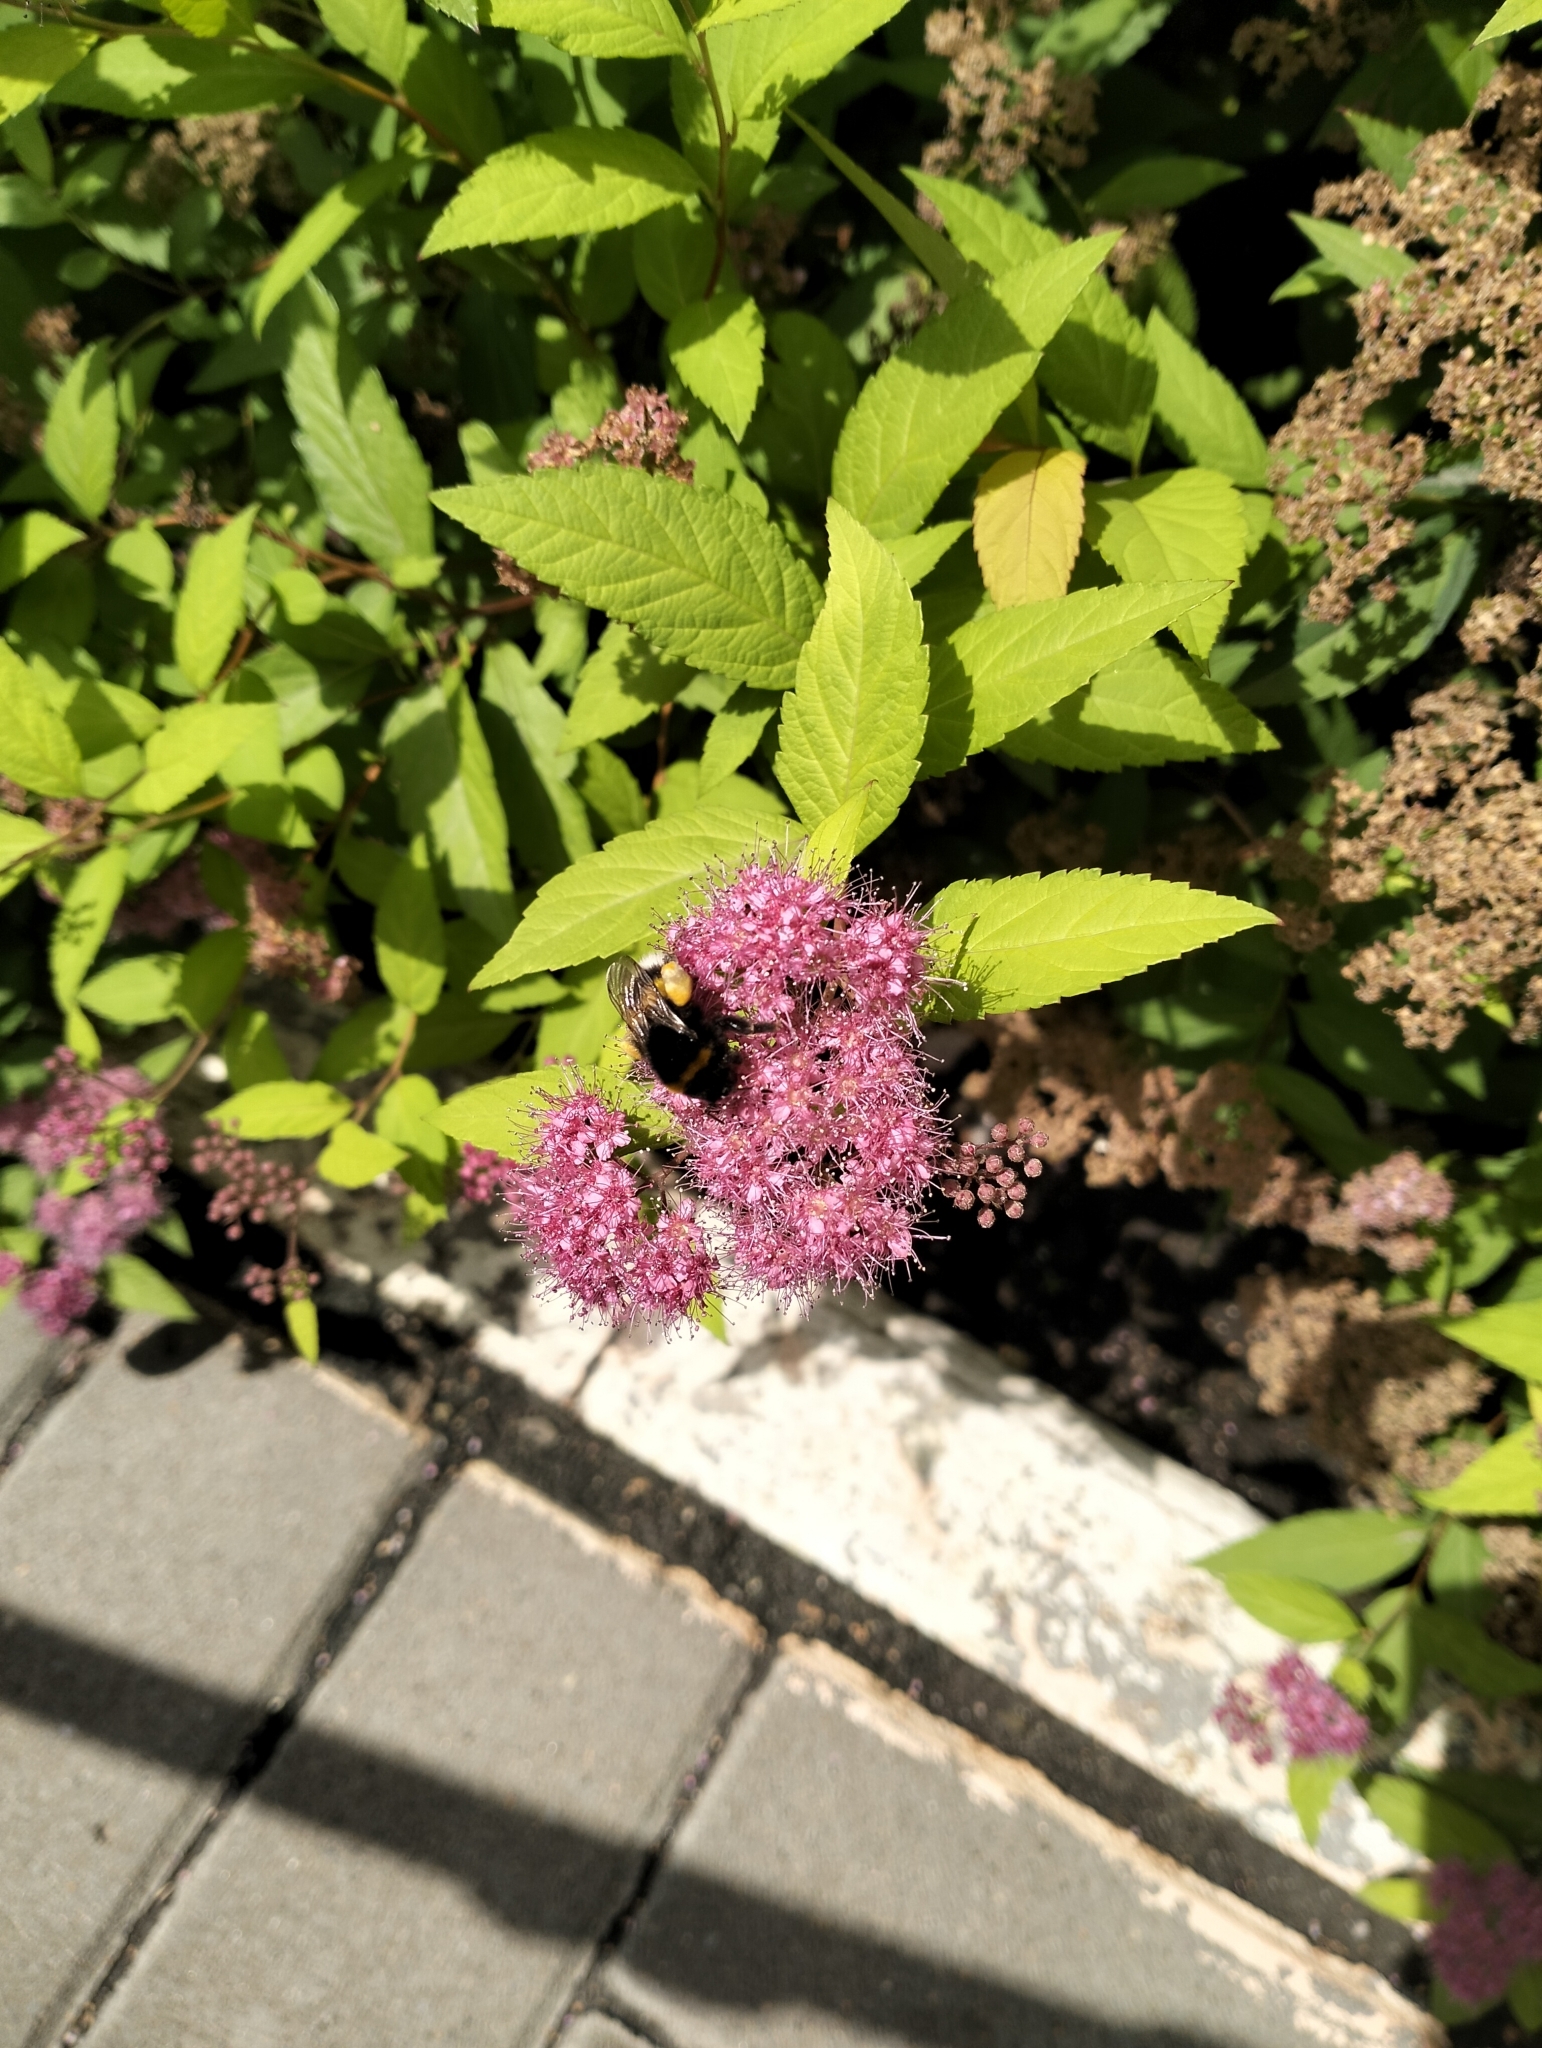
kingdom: Animalia
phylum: Arthropoda
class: Insecta
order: Hymenoptera
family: Apidae
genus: Bombus
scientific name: Bombus
